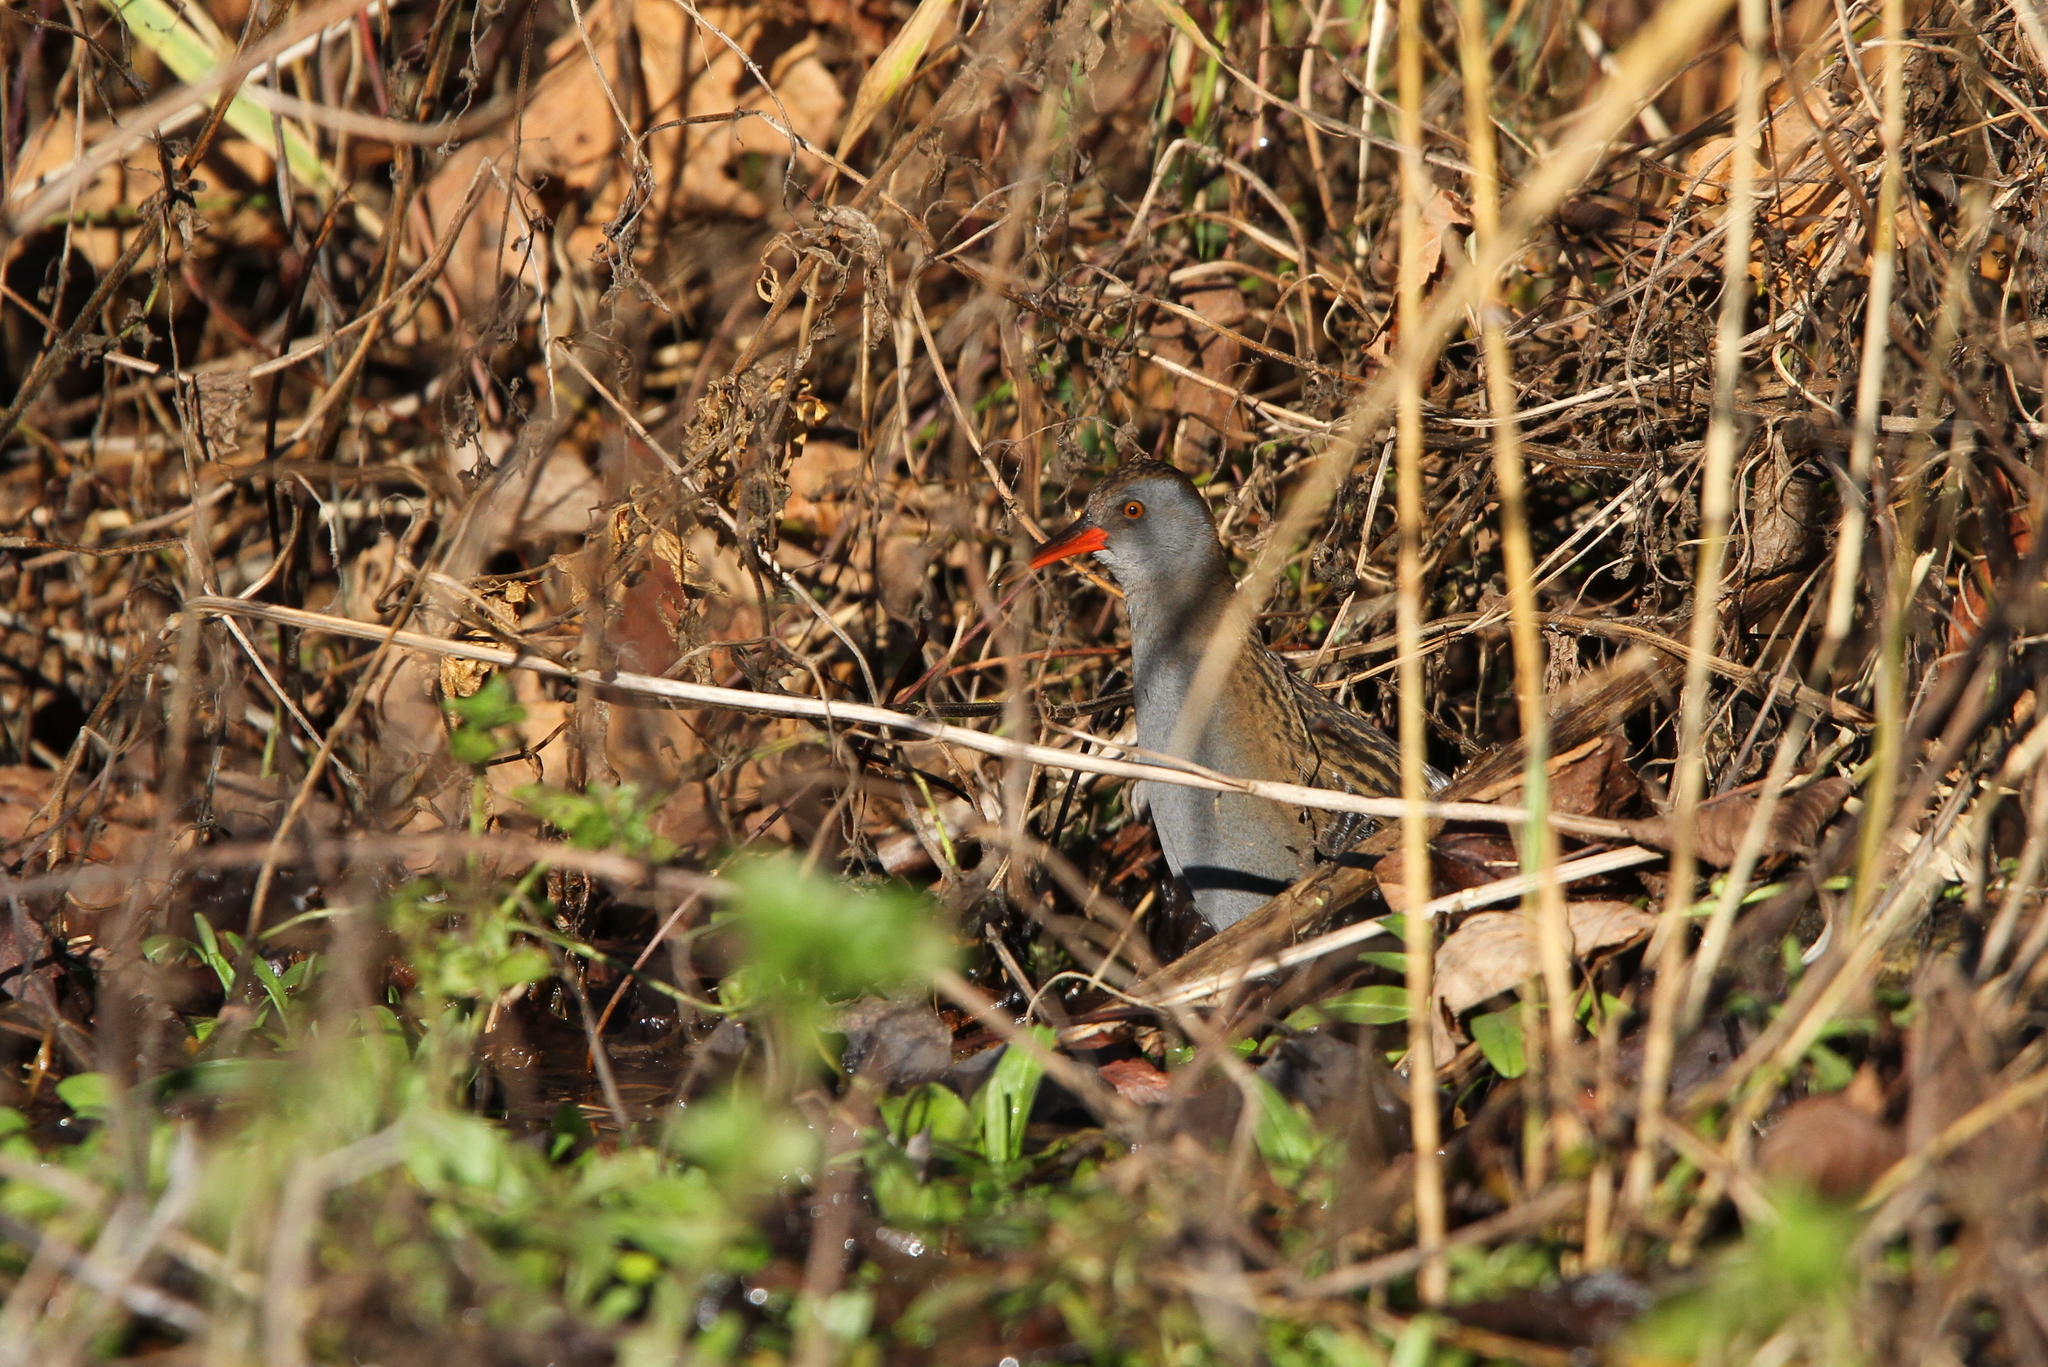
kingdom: Animalia
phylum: Chordata
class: Aves
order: Gruiformes
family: Rallidae
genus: Rallus
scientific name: Rallus aquaticus
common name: Water rail
